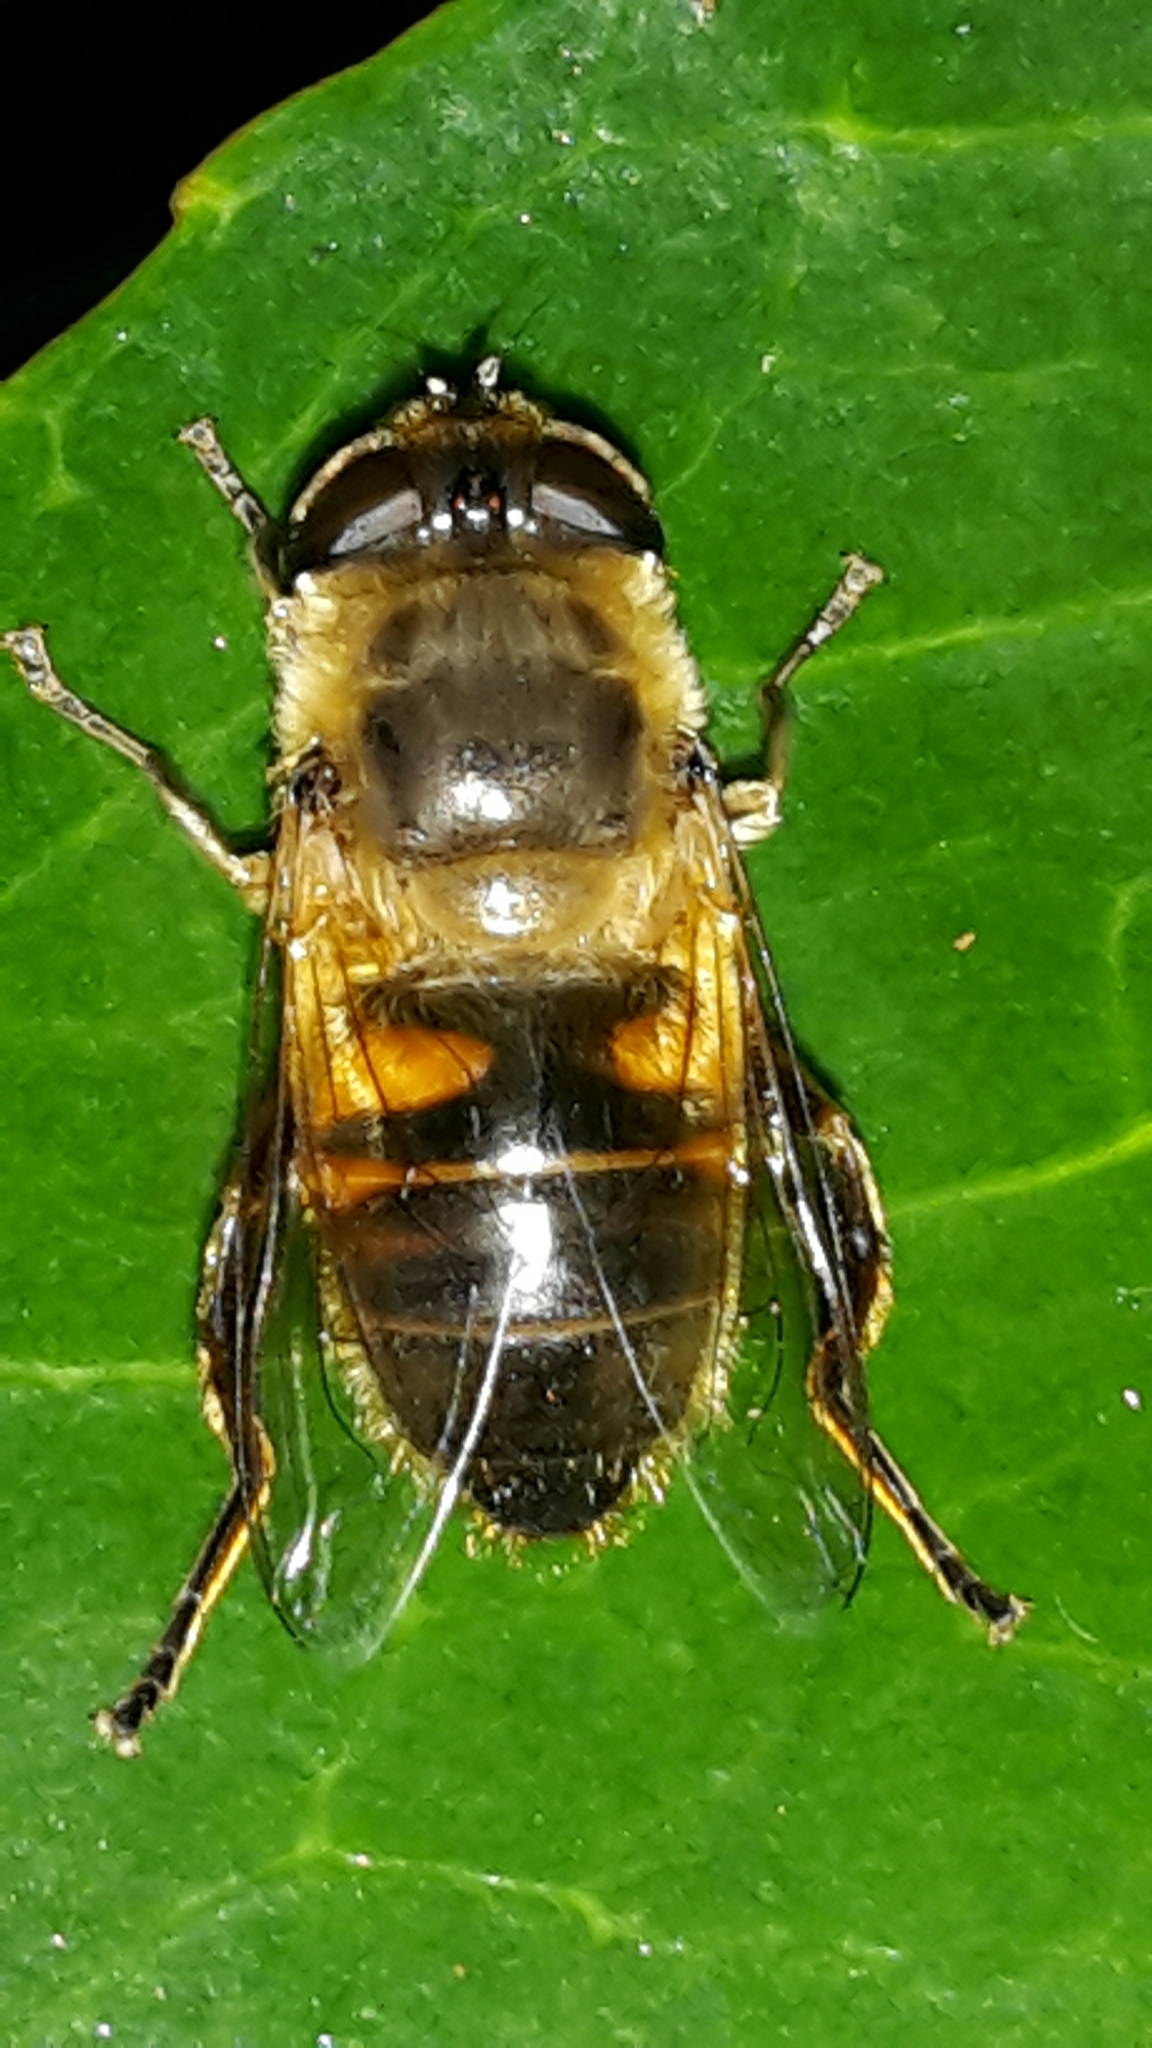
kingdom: Animalia
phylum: Arthropoda
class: Insecta
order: Diptera
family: Syrphidae
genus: Eristalis
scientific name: Eristalis tenax
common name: Drone fly
